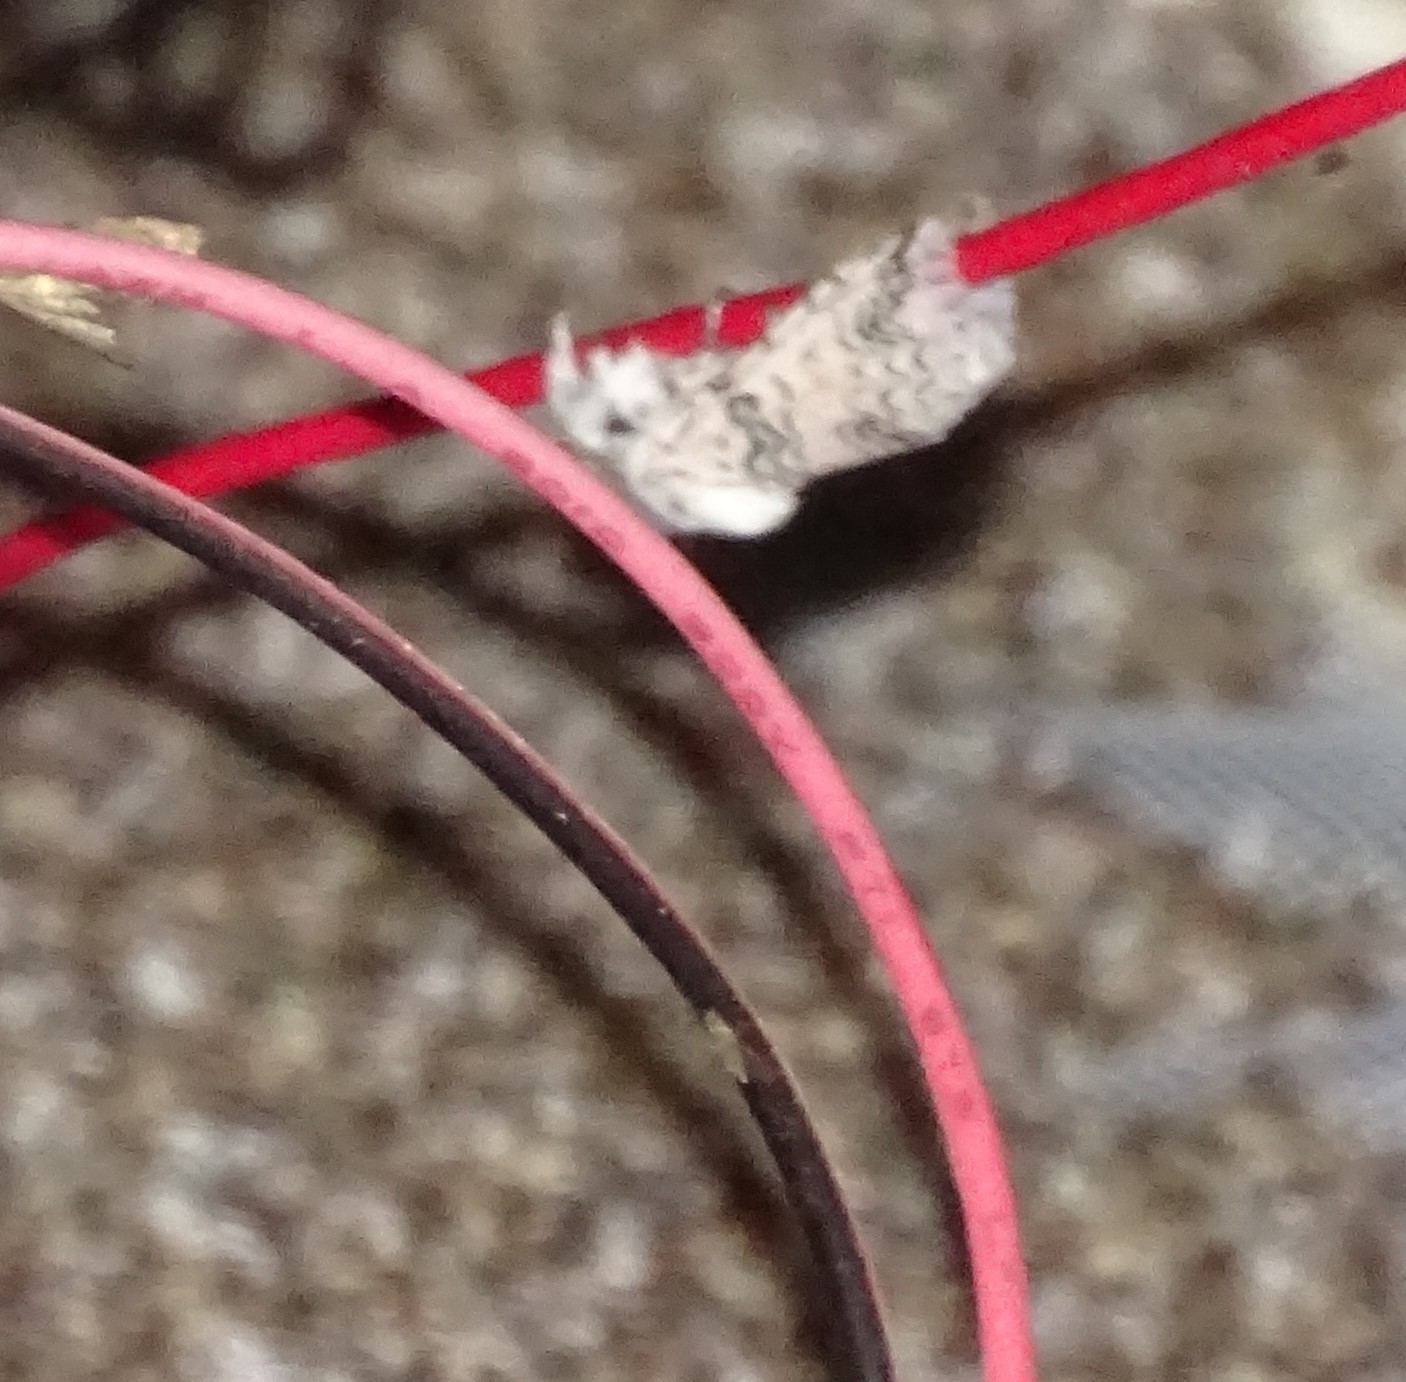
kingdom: Animalia
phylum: Arthropoda
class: Insecta
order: Lepidoptera
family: Notodontidae
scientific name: Notodontidae
